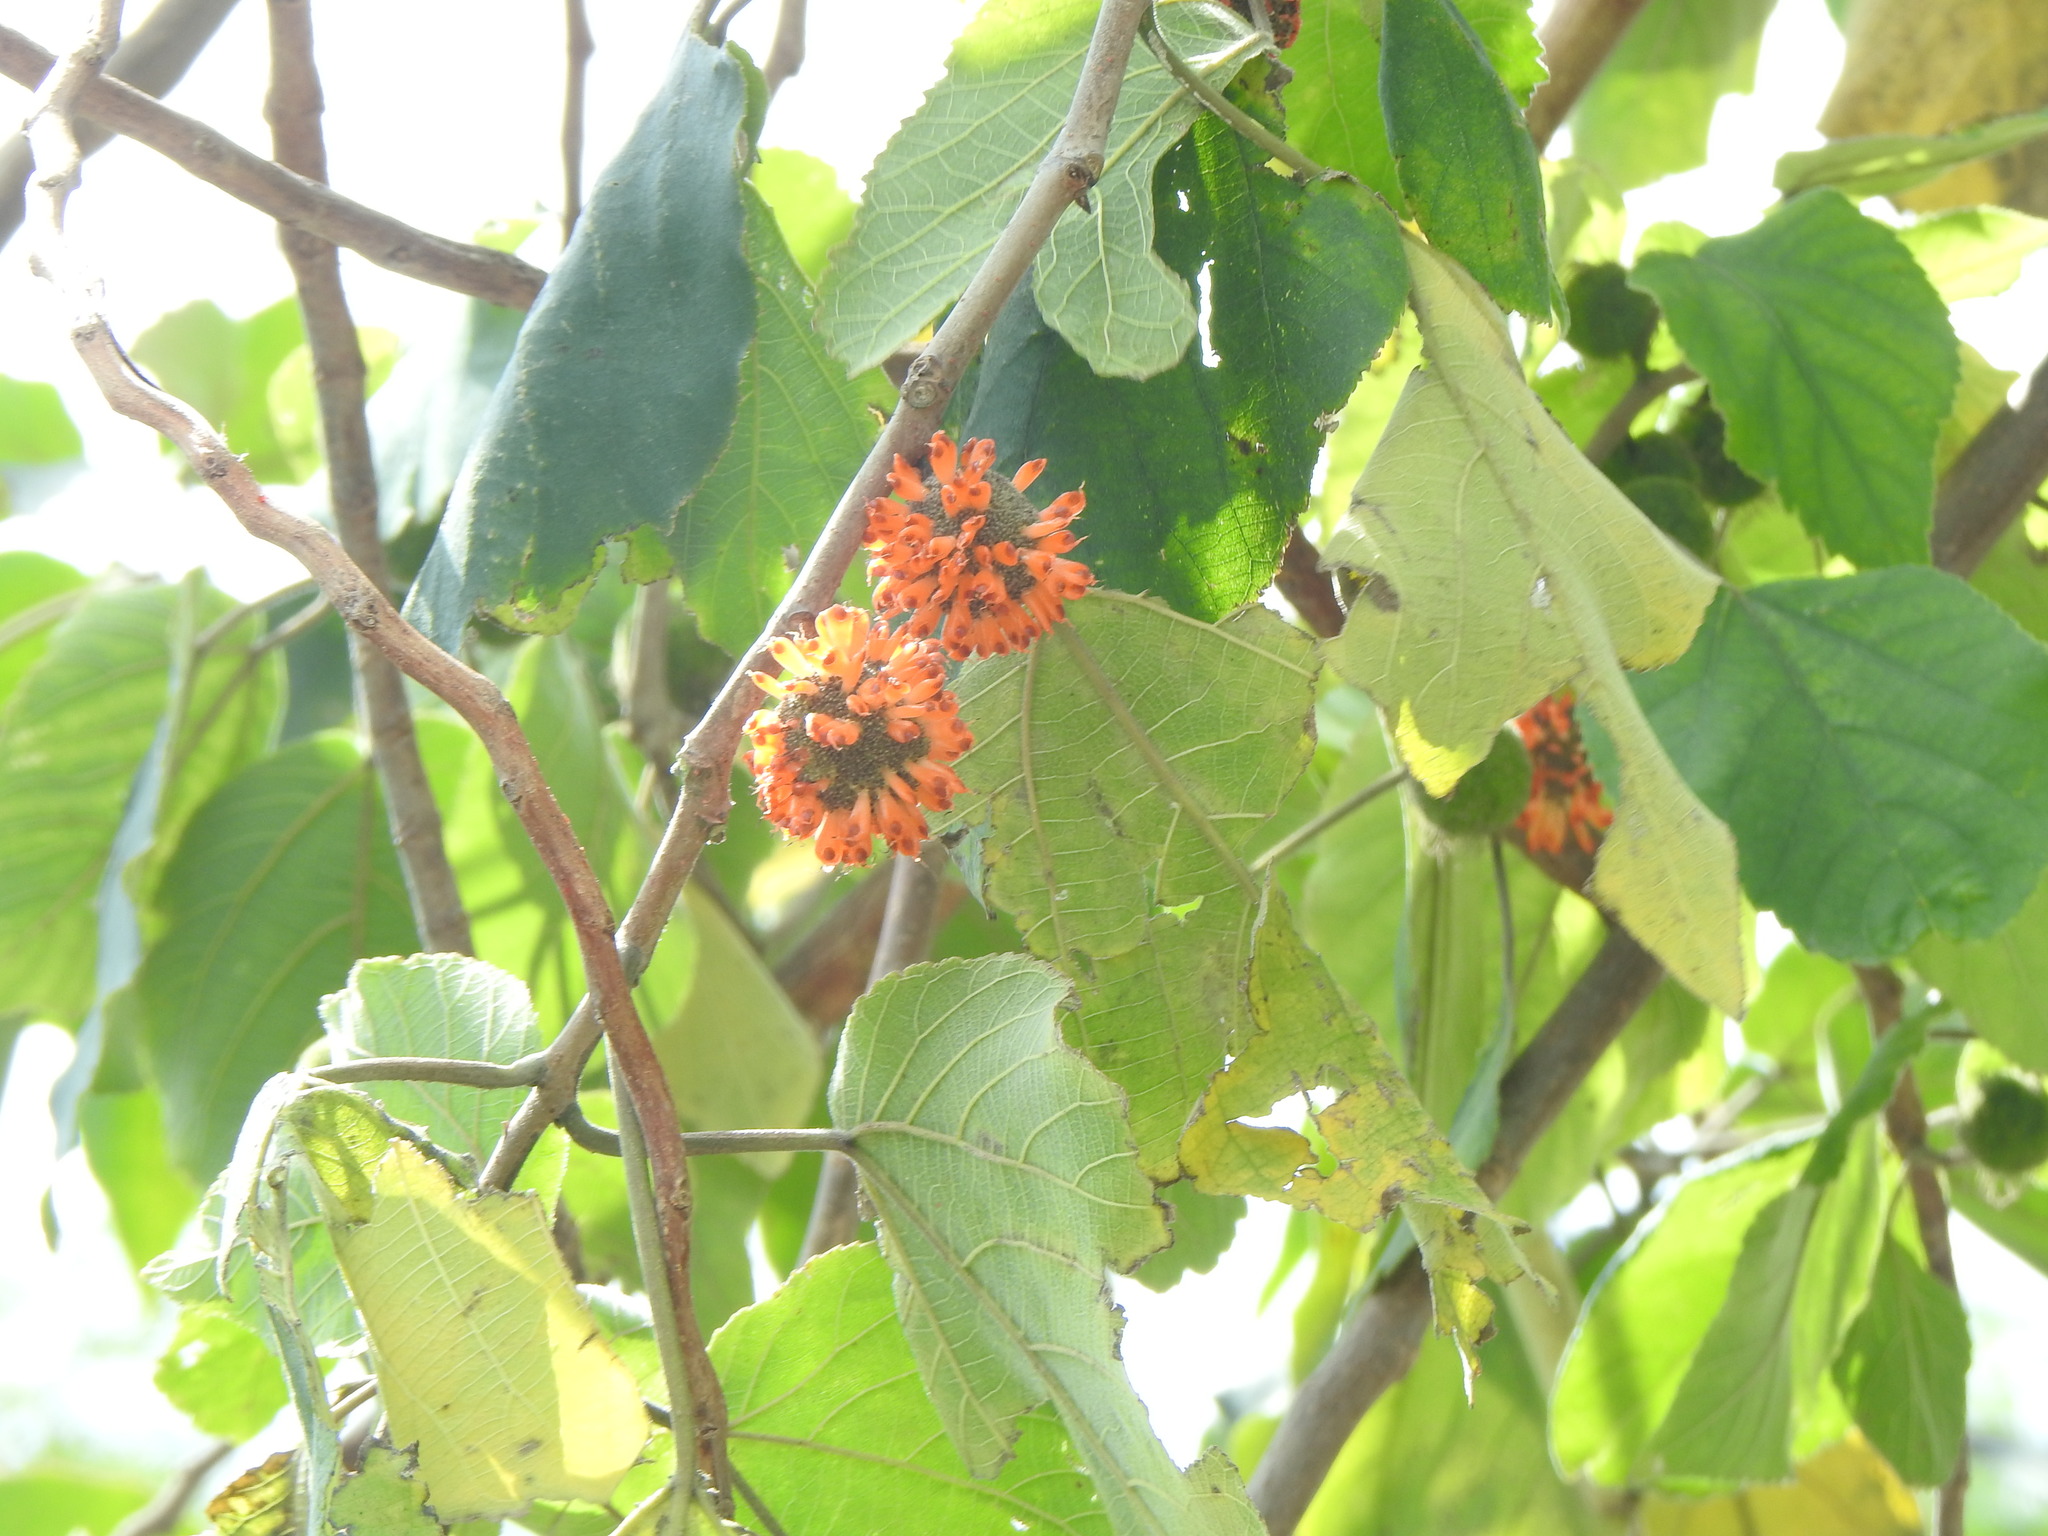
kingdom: Plantae
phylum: Tracheophyta
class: Magnoliopsida
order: Rosales
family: Moraceae
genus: Broussonetia
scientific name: Broussonetia papyrifera
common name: Paper mulberry
